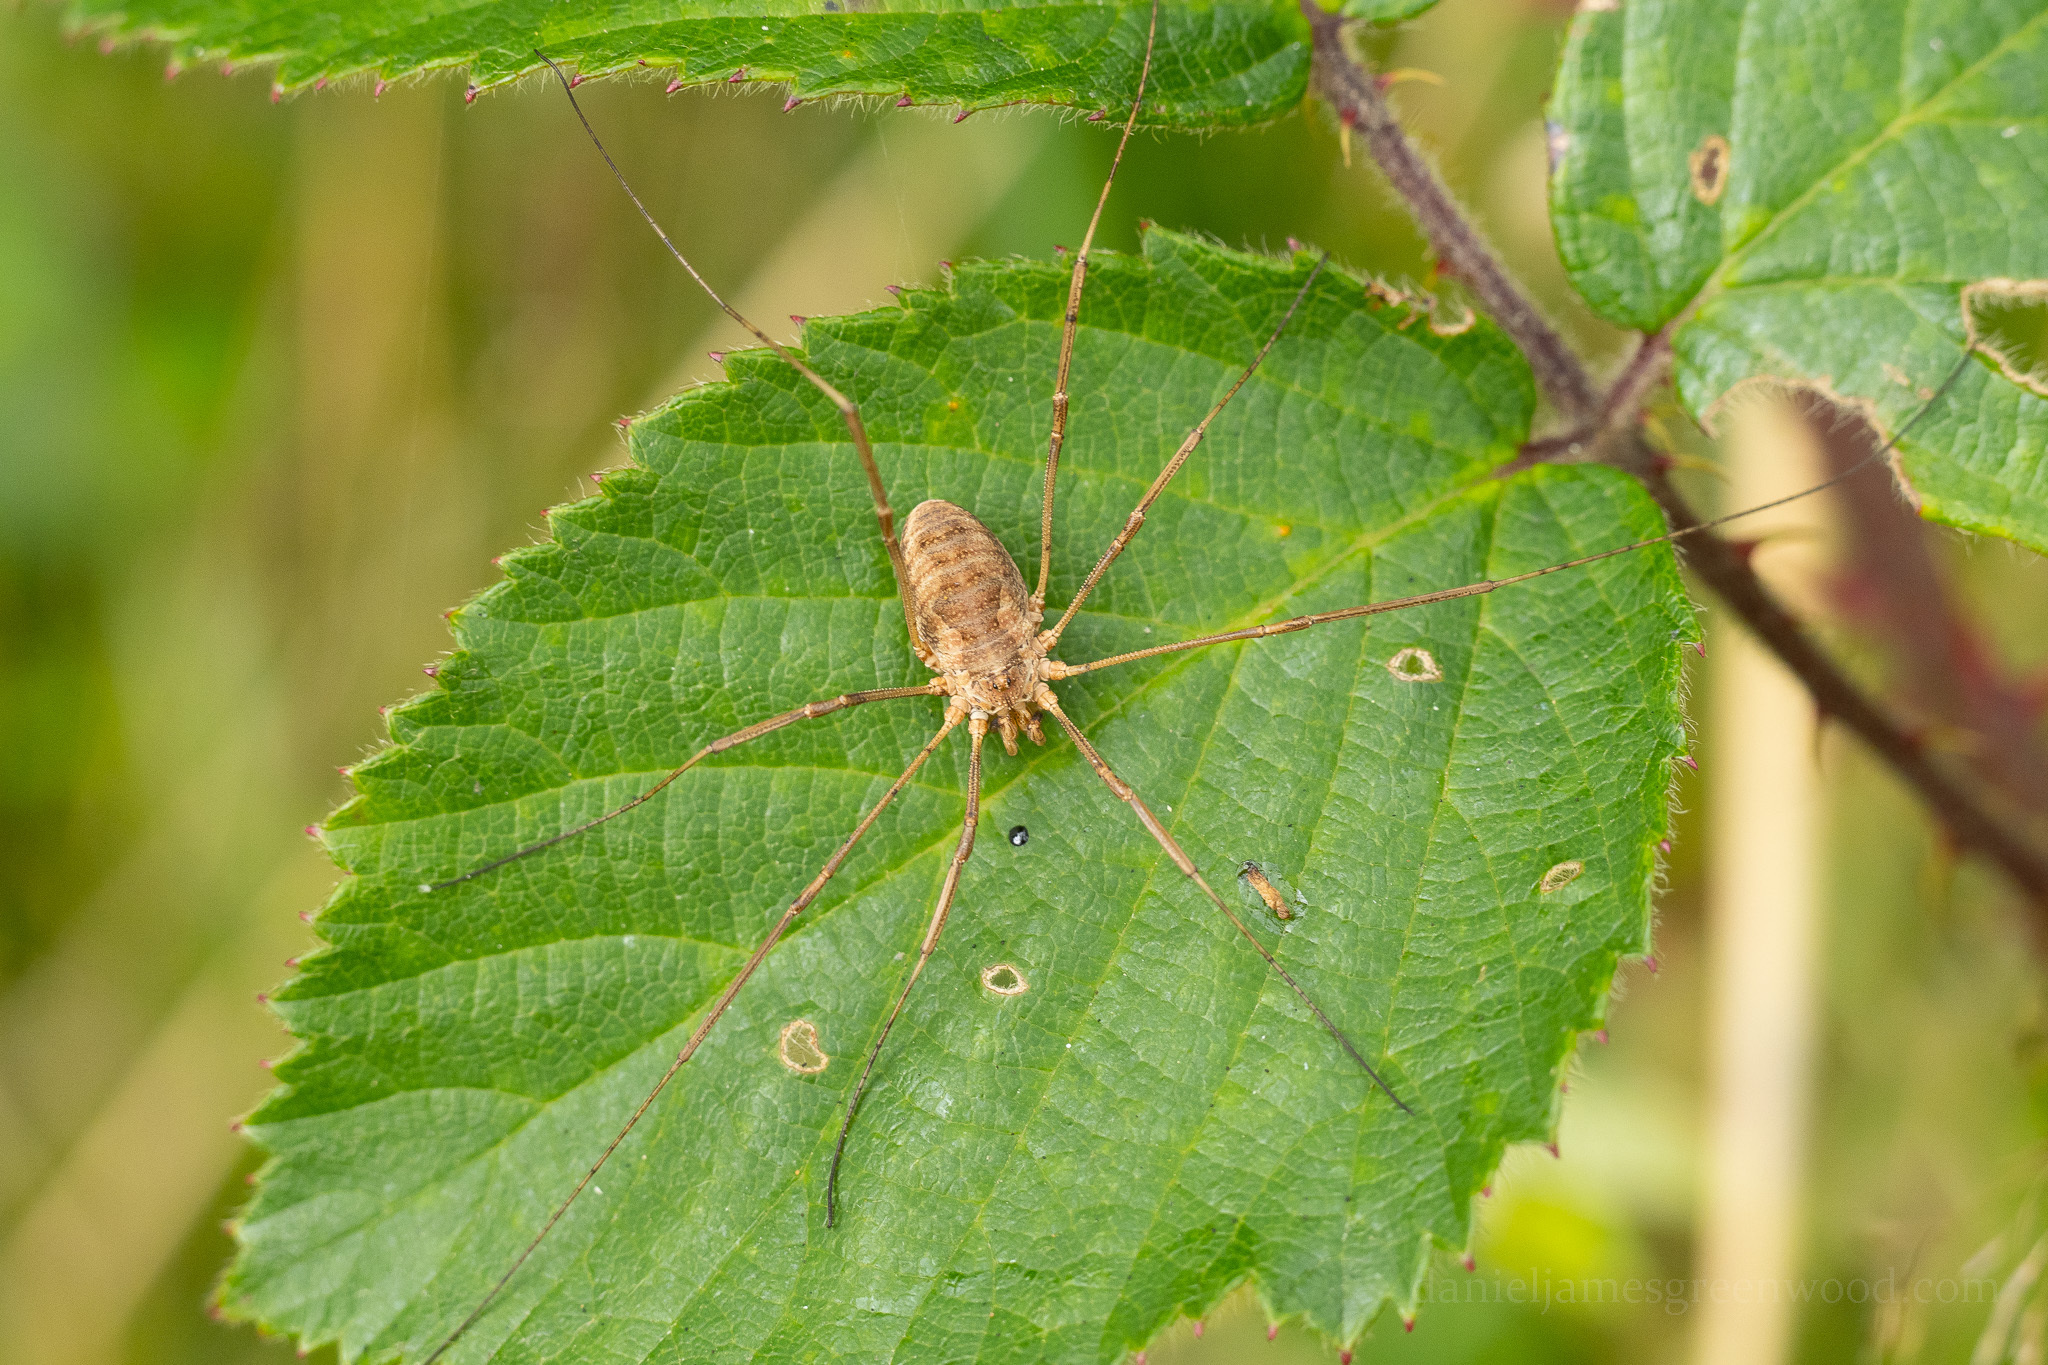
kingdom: Animalia
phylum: Arthropoda
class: Arachnida
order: Opiliones
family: Phalangiidae
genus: Phalangium
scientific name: Phalangium opilio
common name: Daddy longleg
